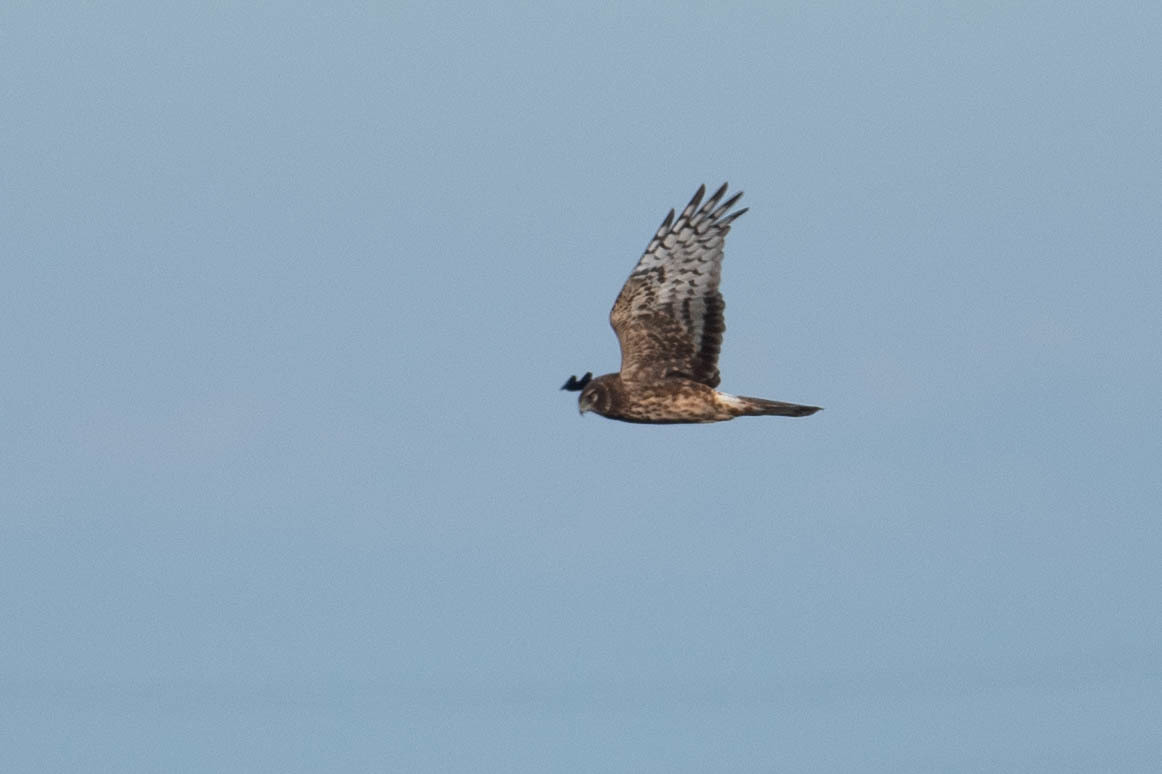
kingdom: Animalia
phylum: Chordata
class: Aves
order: Accipitriformes
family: Accipitridae
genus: Circus
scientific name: Circus cyaneus
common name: Hen harrier
